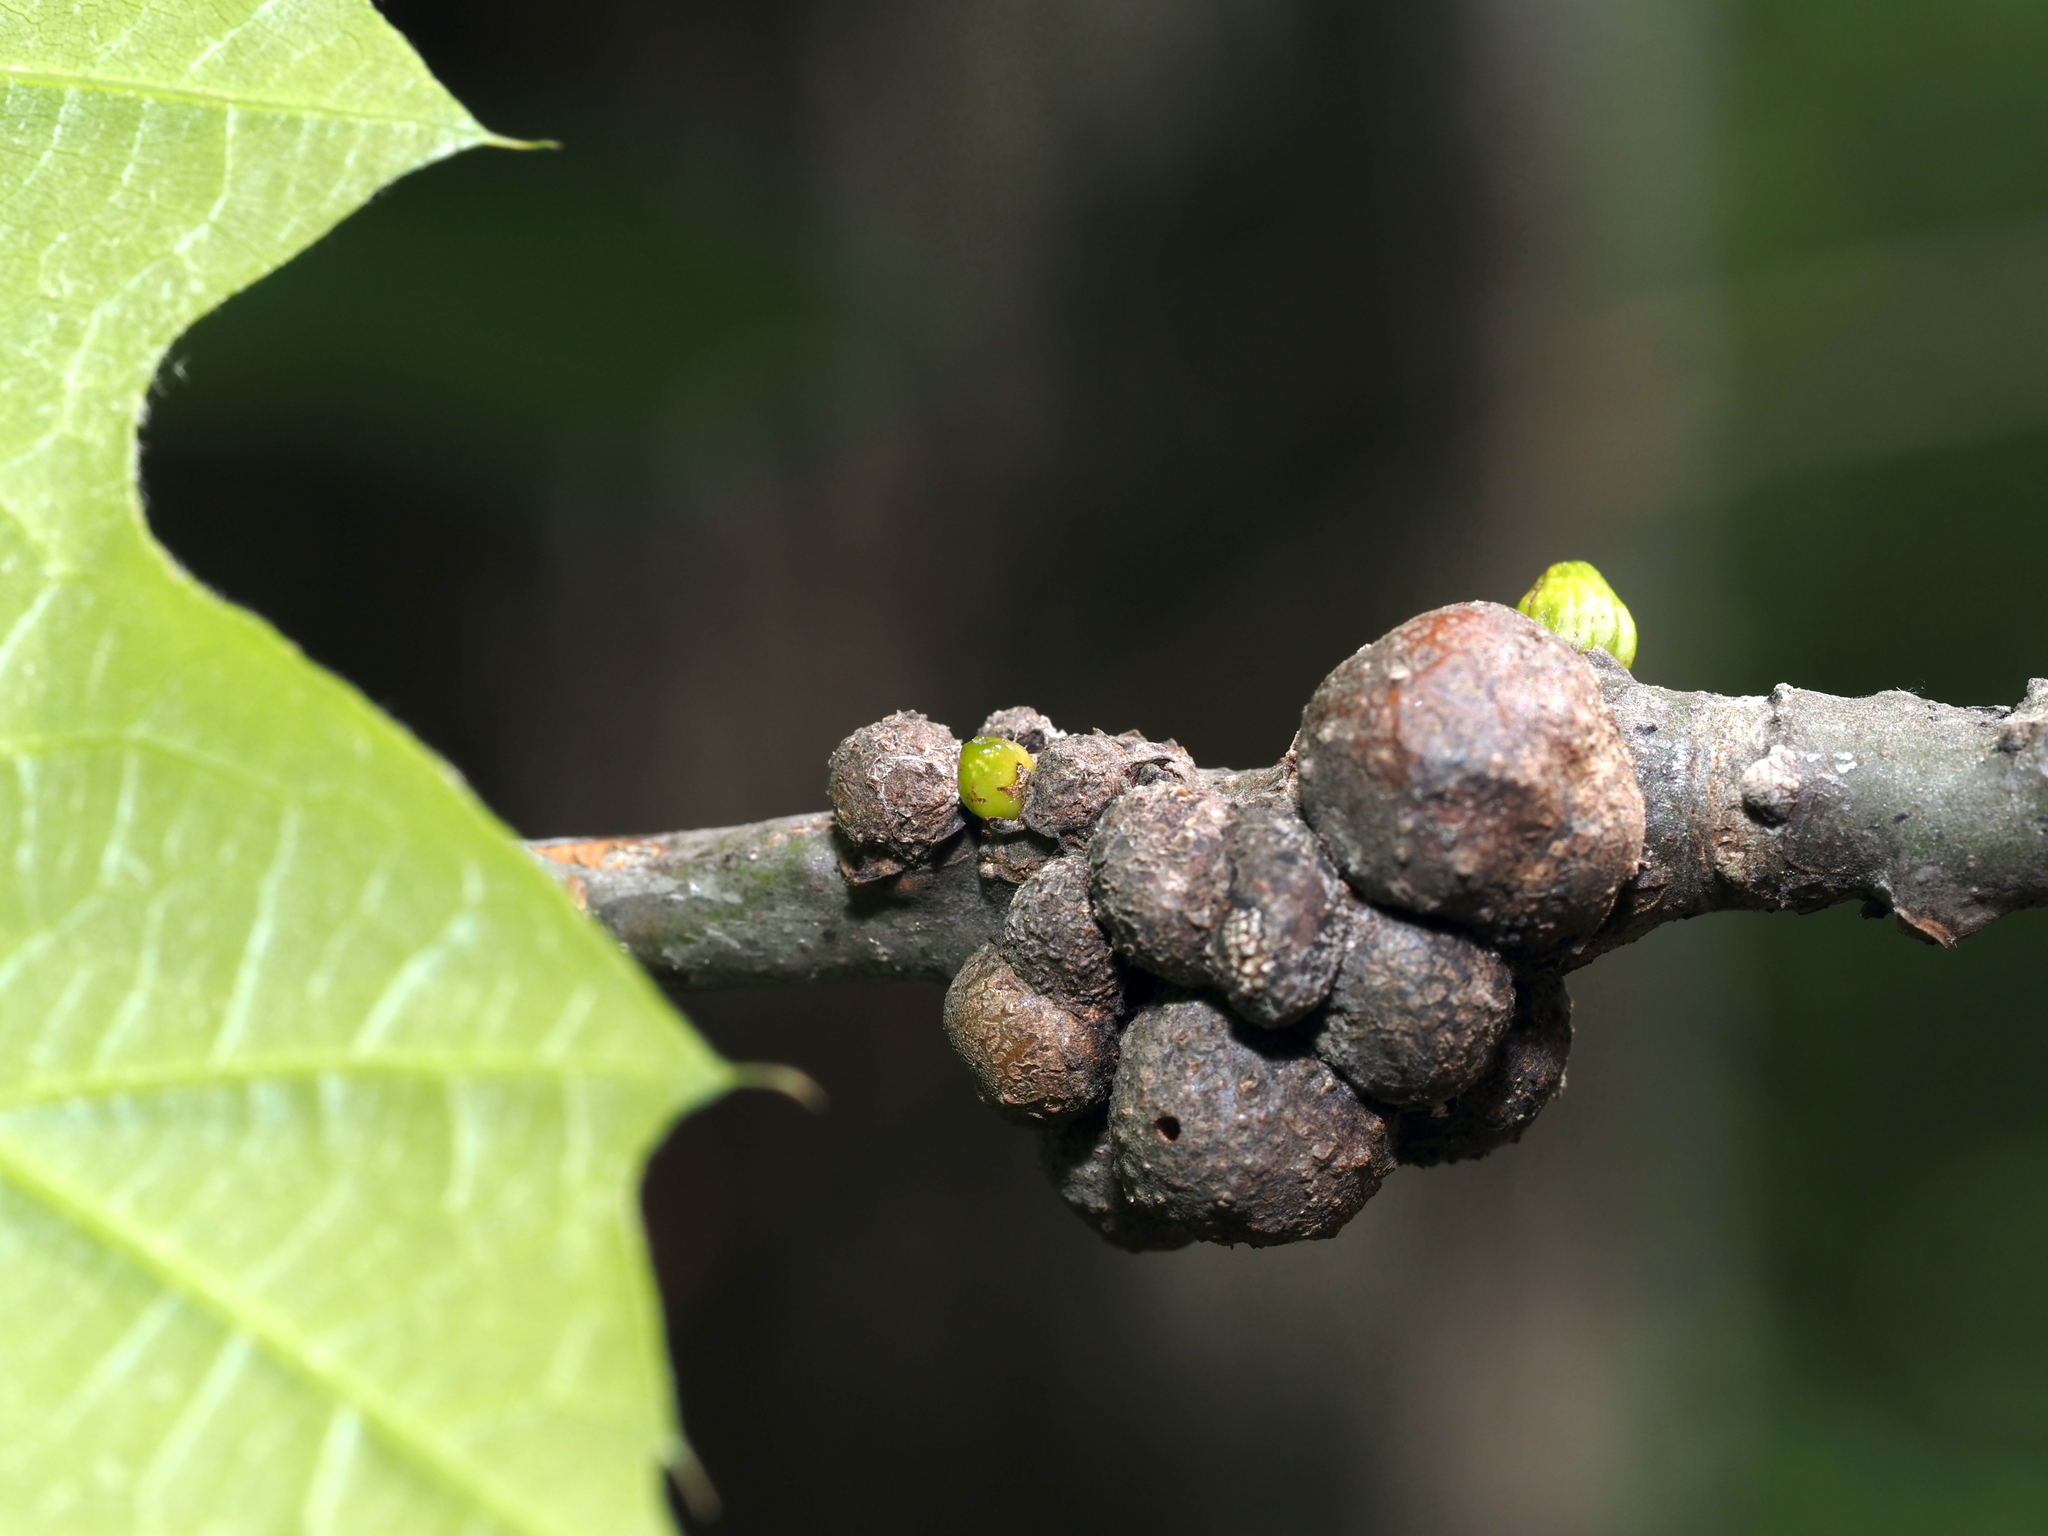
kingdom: Animalia
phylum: Arthropoda
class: Insecta
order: Hymenoptera
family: Cynipidae
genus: Callirhytis
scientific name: Callirhytis
